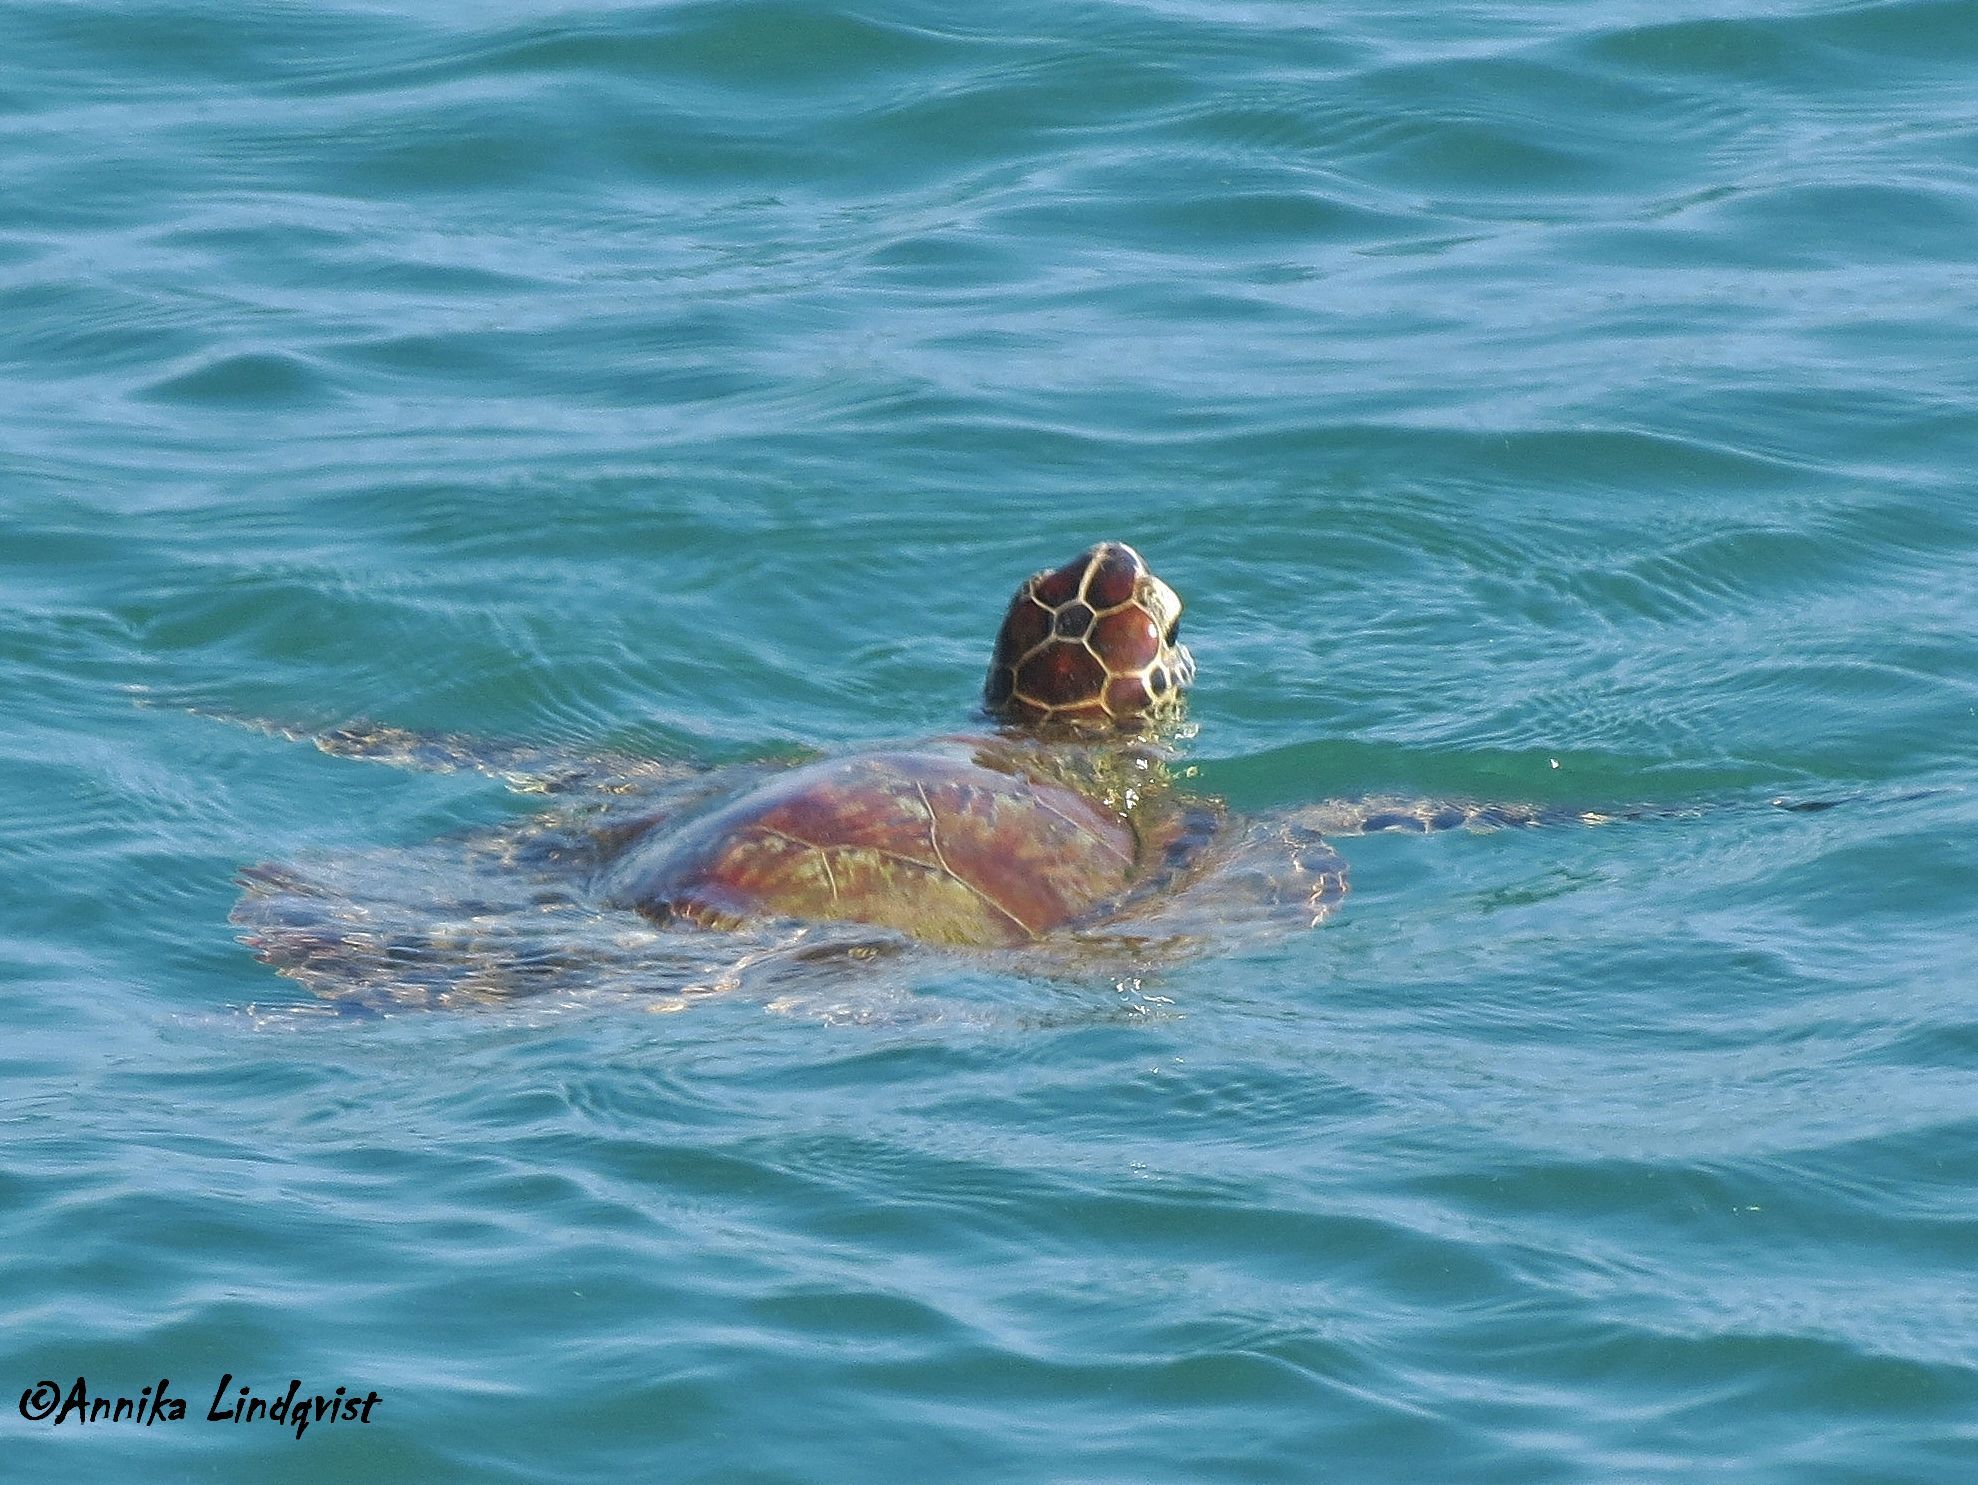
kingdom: Animalia
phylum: Chordata
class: Testudines
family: Cheloniidae
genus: Chelonia
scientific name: Chelonia mydas
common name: Green turtle
